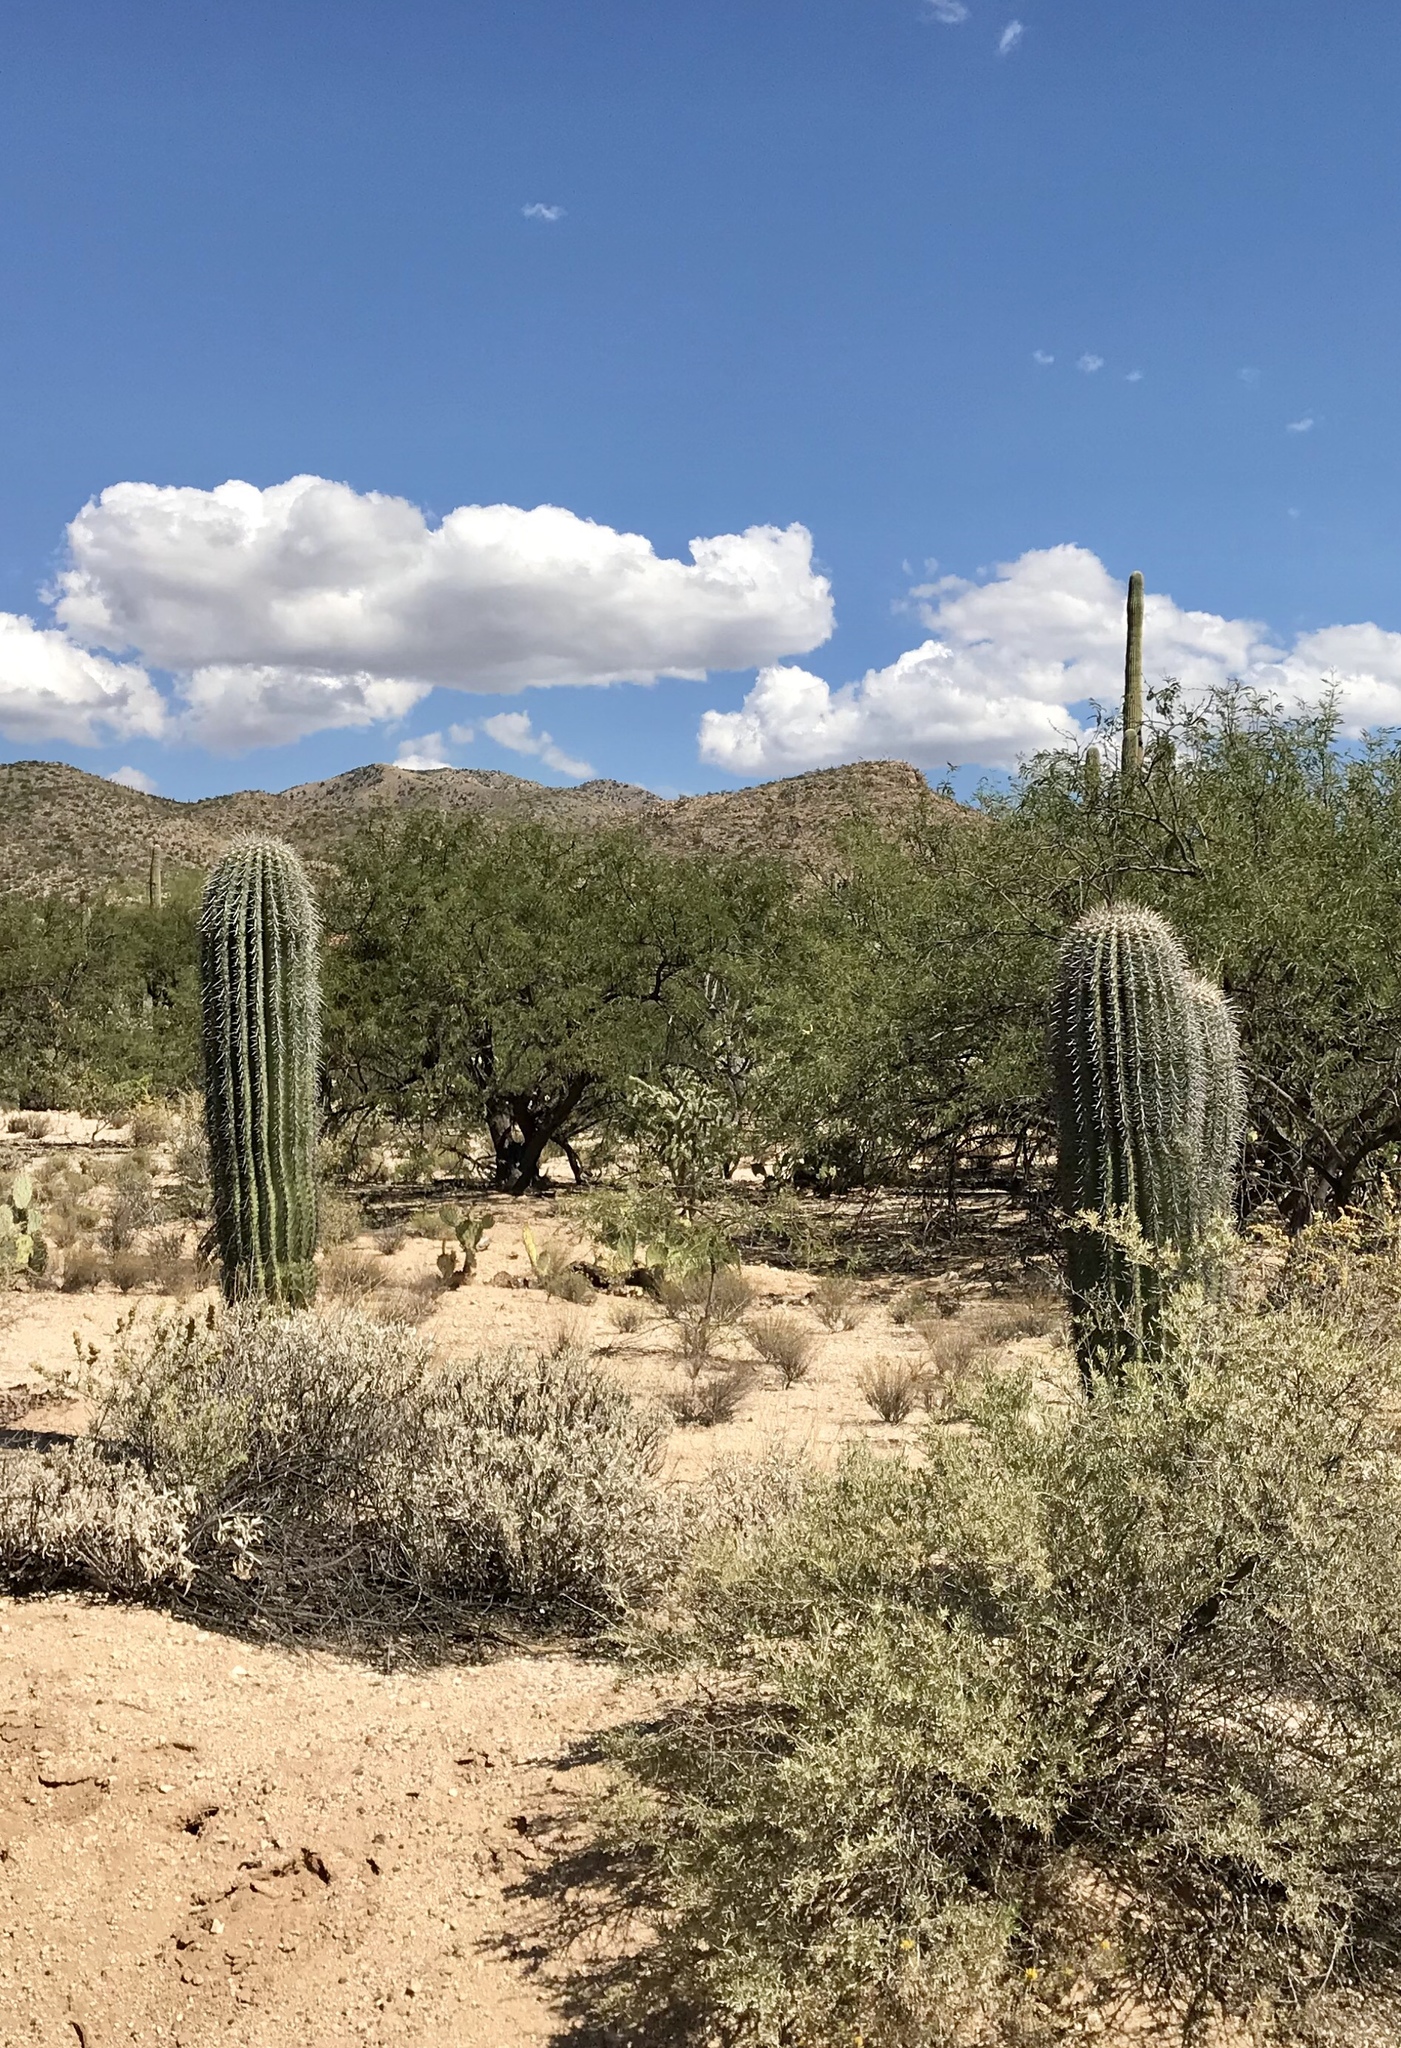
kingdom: Plantae
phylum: Tracheophyta
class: Magnoliopsida
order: Caryophyllales
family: Cactaceae
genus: Carnegiea
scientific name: Carnegiea gigantea
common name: Saguaro
